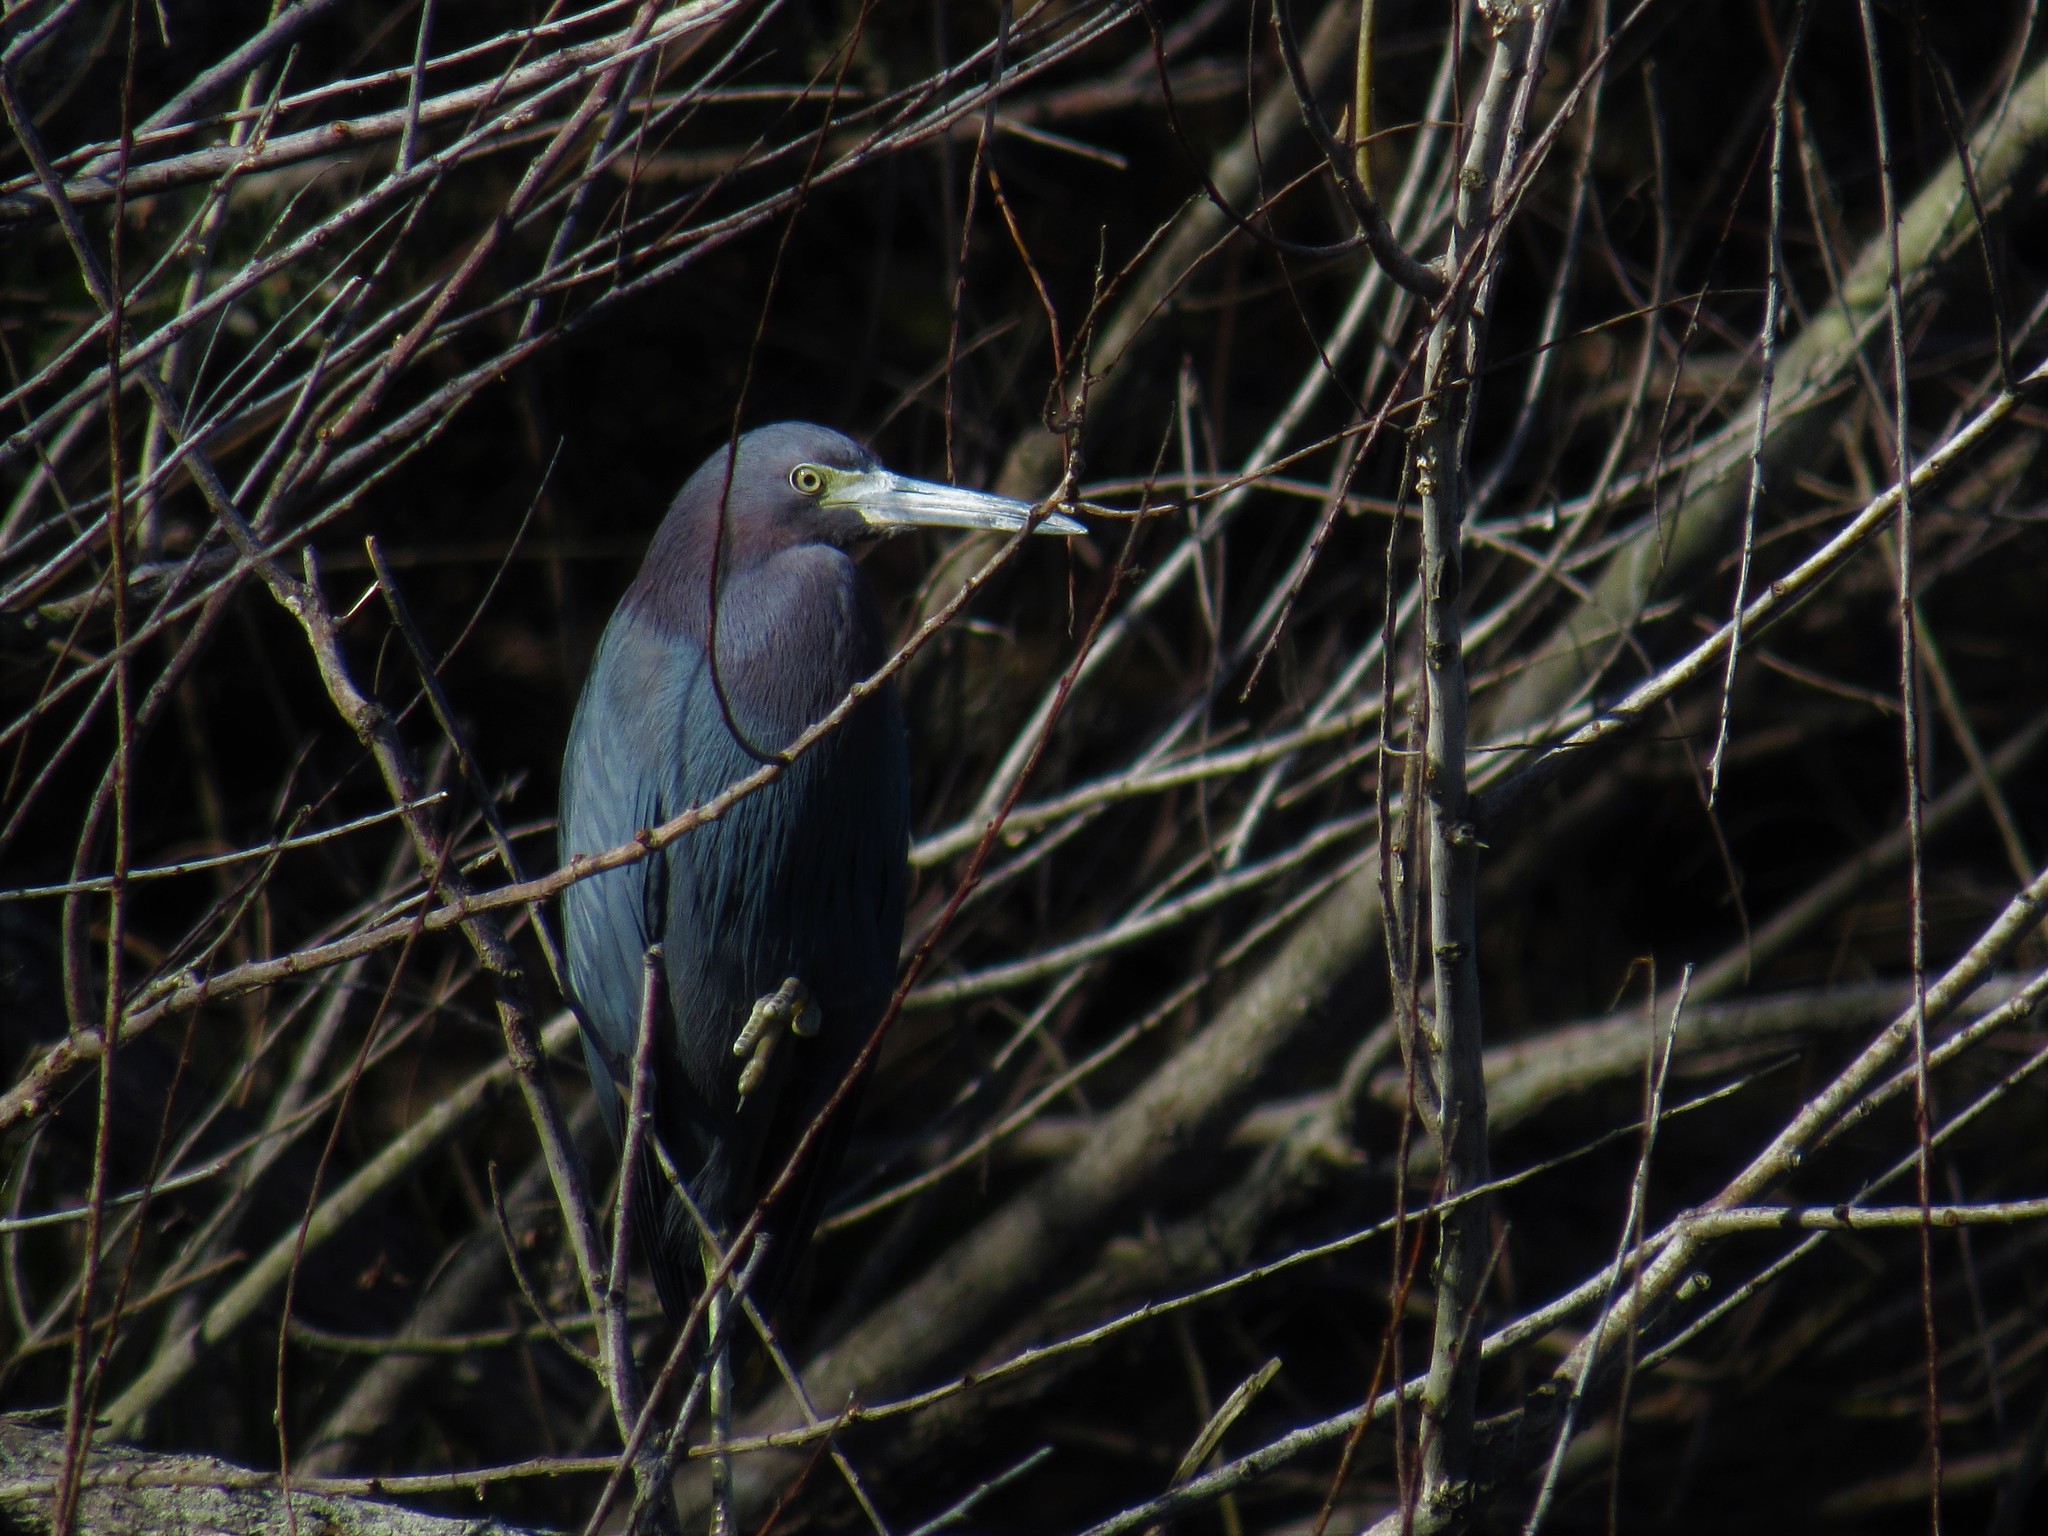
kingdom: Animalia
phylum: Chordata
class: Aves
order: Pelecaniformes
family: Ardeidae
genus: Egretta
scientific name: Egretta caerulea
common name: Little blue heron
